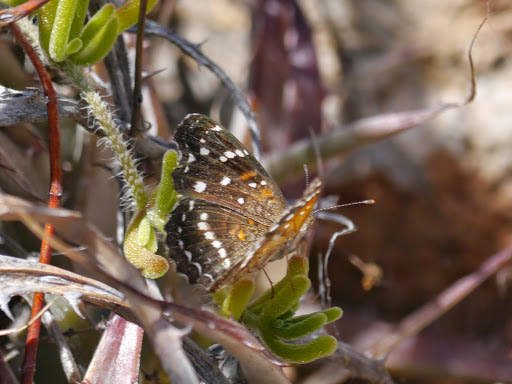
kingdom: Animalia
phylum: Arthropoda
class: Insecta
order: Lepidoptera
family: Nymphalidae
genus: Anthanassa
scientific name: Anthanassa texana
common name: Texan crescent
